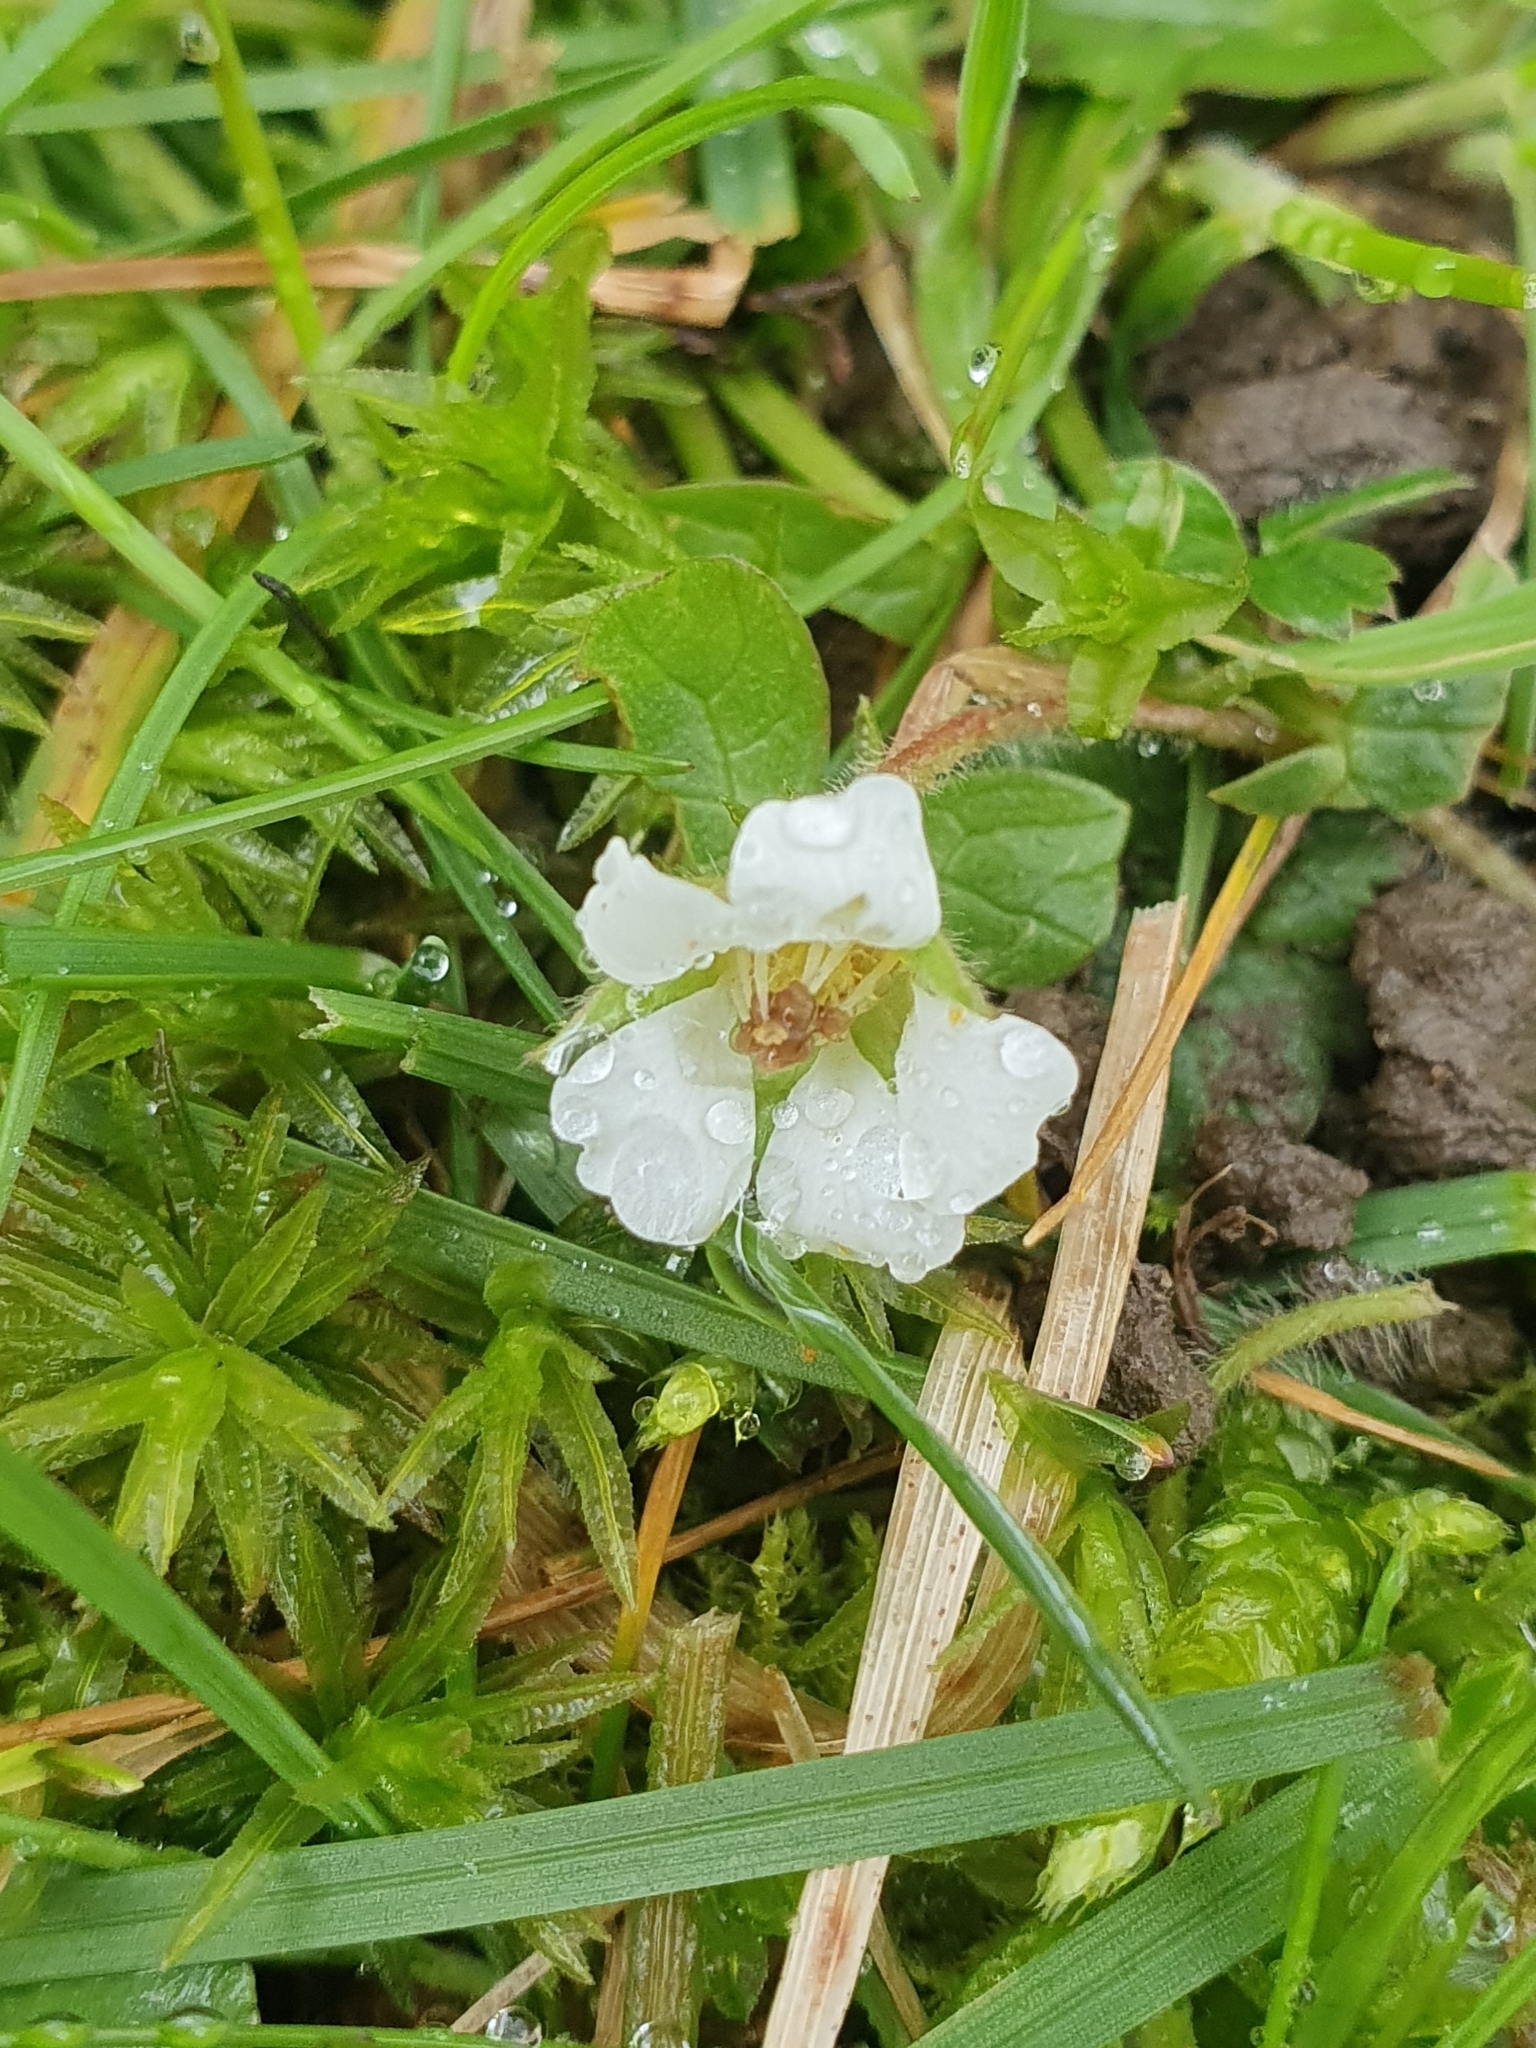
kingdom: Plantae
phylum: Tracheophyta
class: Magnoliopsida
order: Rosales
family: Rosaceae
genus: Potentilla
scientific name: Potentilla sterilis
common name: Barren strawberry
